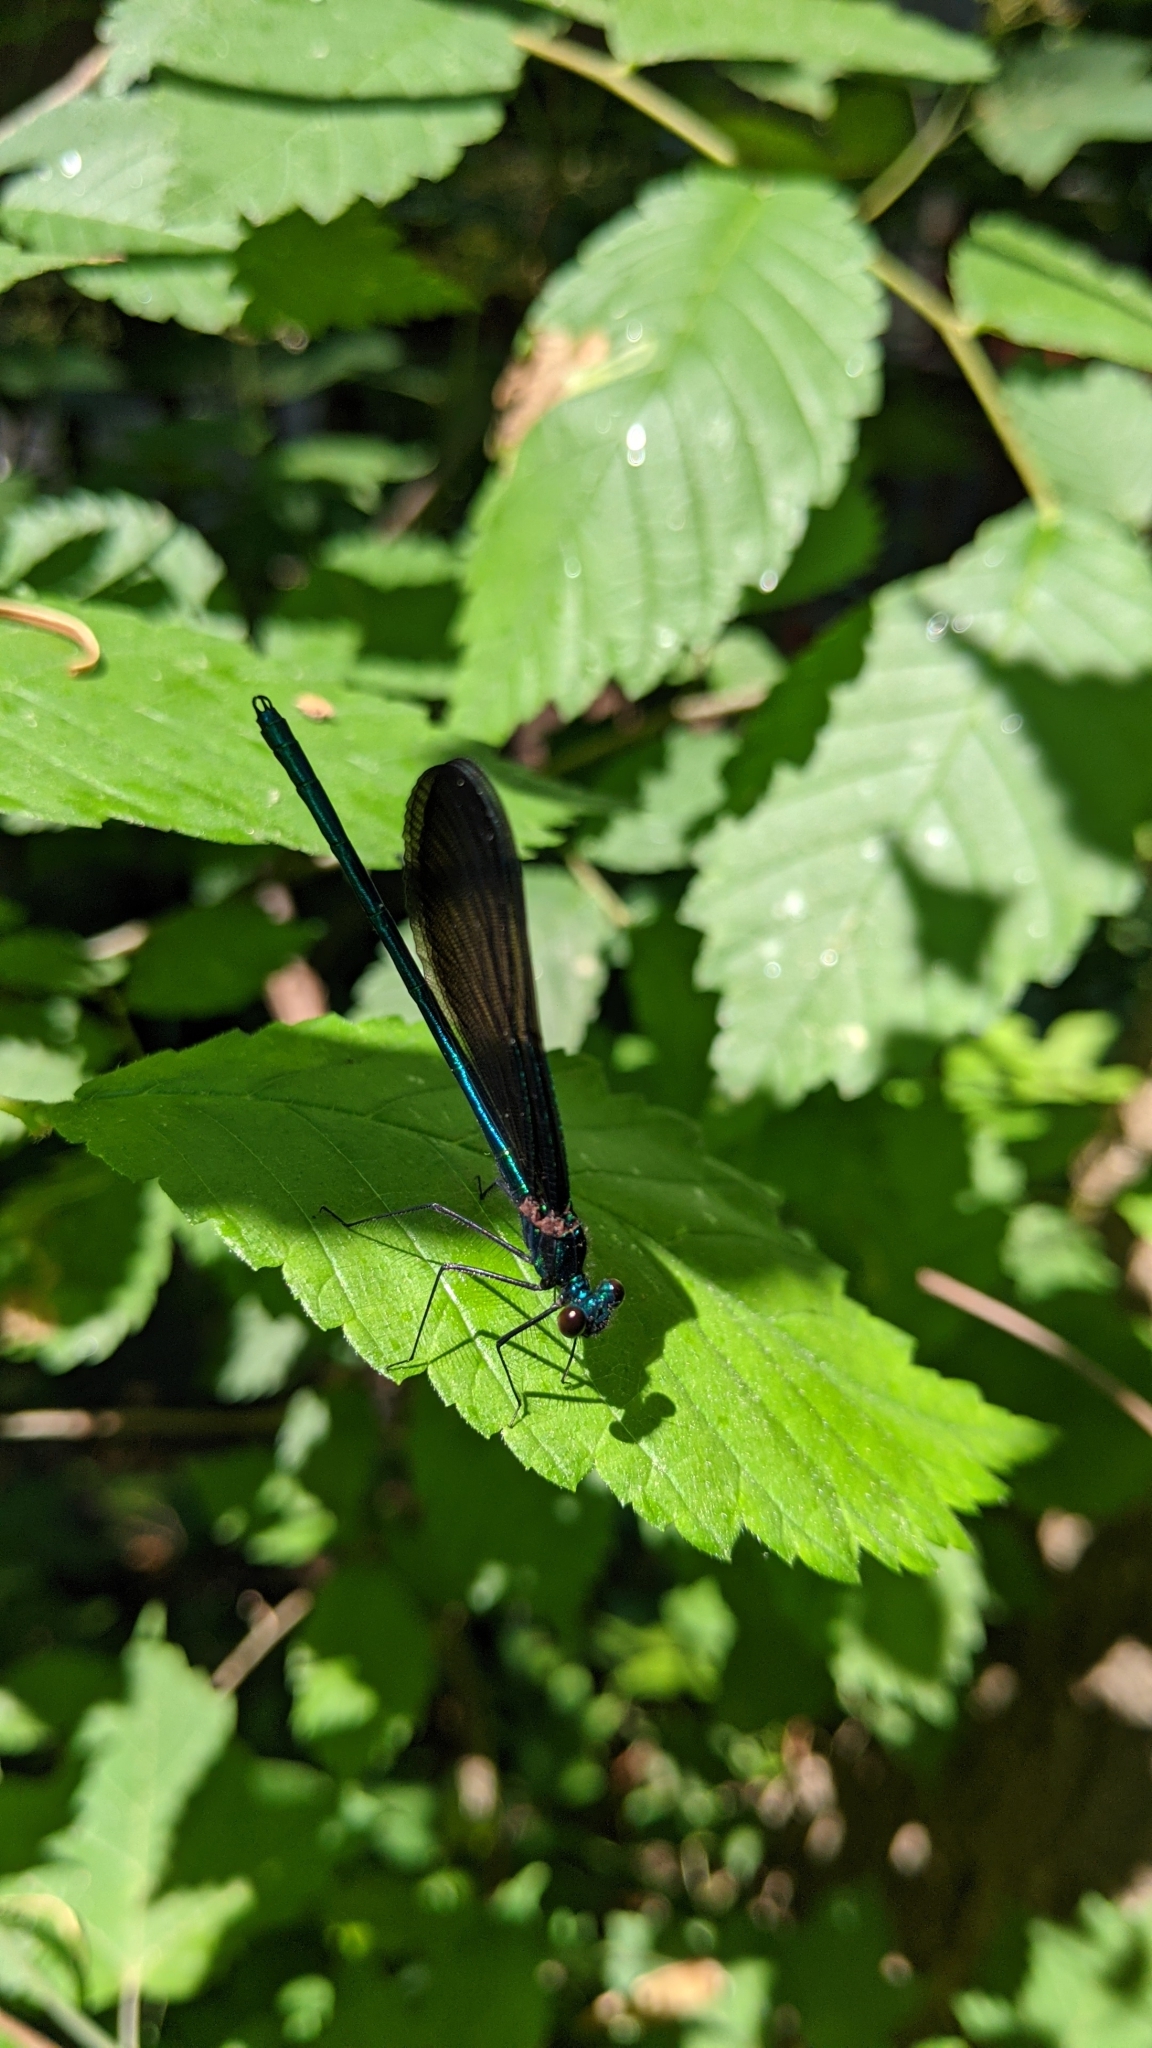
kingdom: Animalia
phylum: Arthropoda
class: Insecta
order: Odonata
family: Calopterygidae
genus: Calopteryx
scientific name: Calopteryx maculata
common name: Ebony jewelwing
